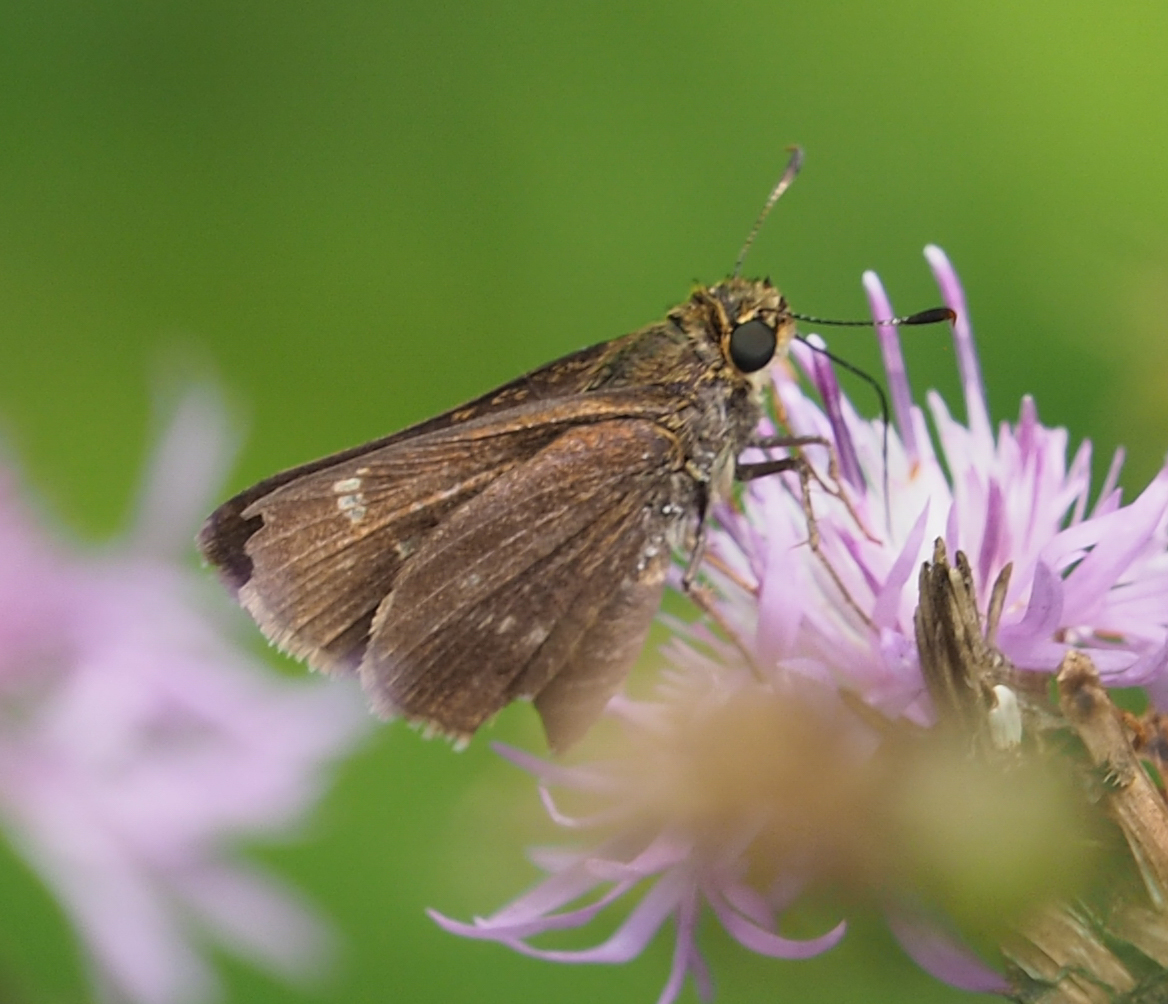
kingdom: Animalia
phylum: Arthropoda
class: Insecta
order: Lepidoptera
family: Hesperiidae
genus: Vernia
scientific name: Vernia verna
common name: Little glassywing
